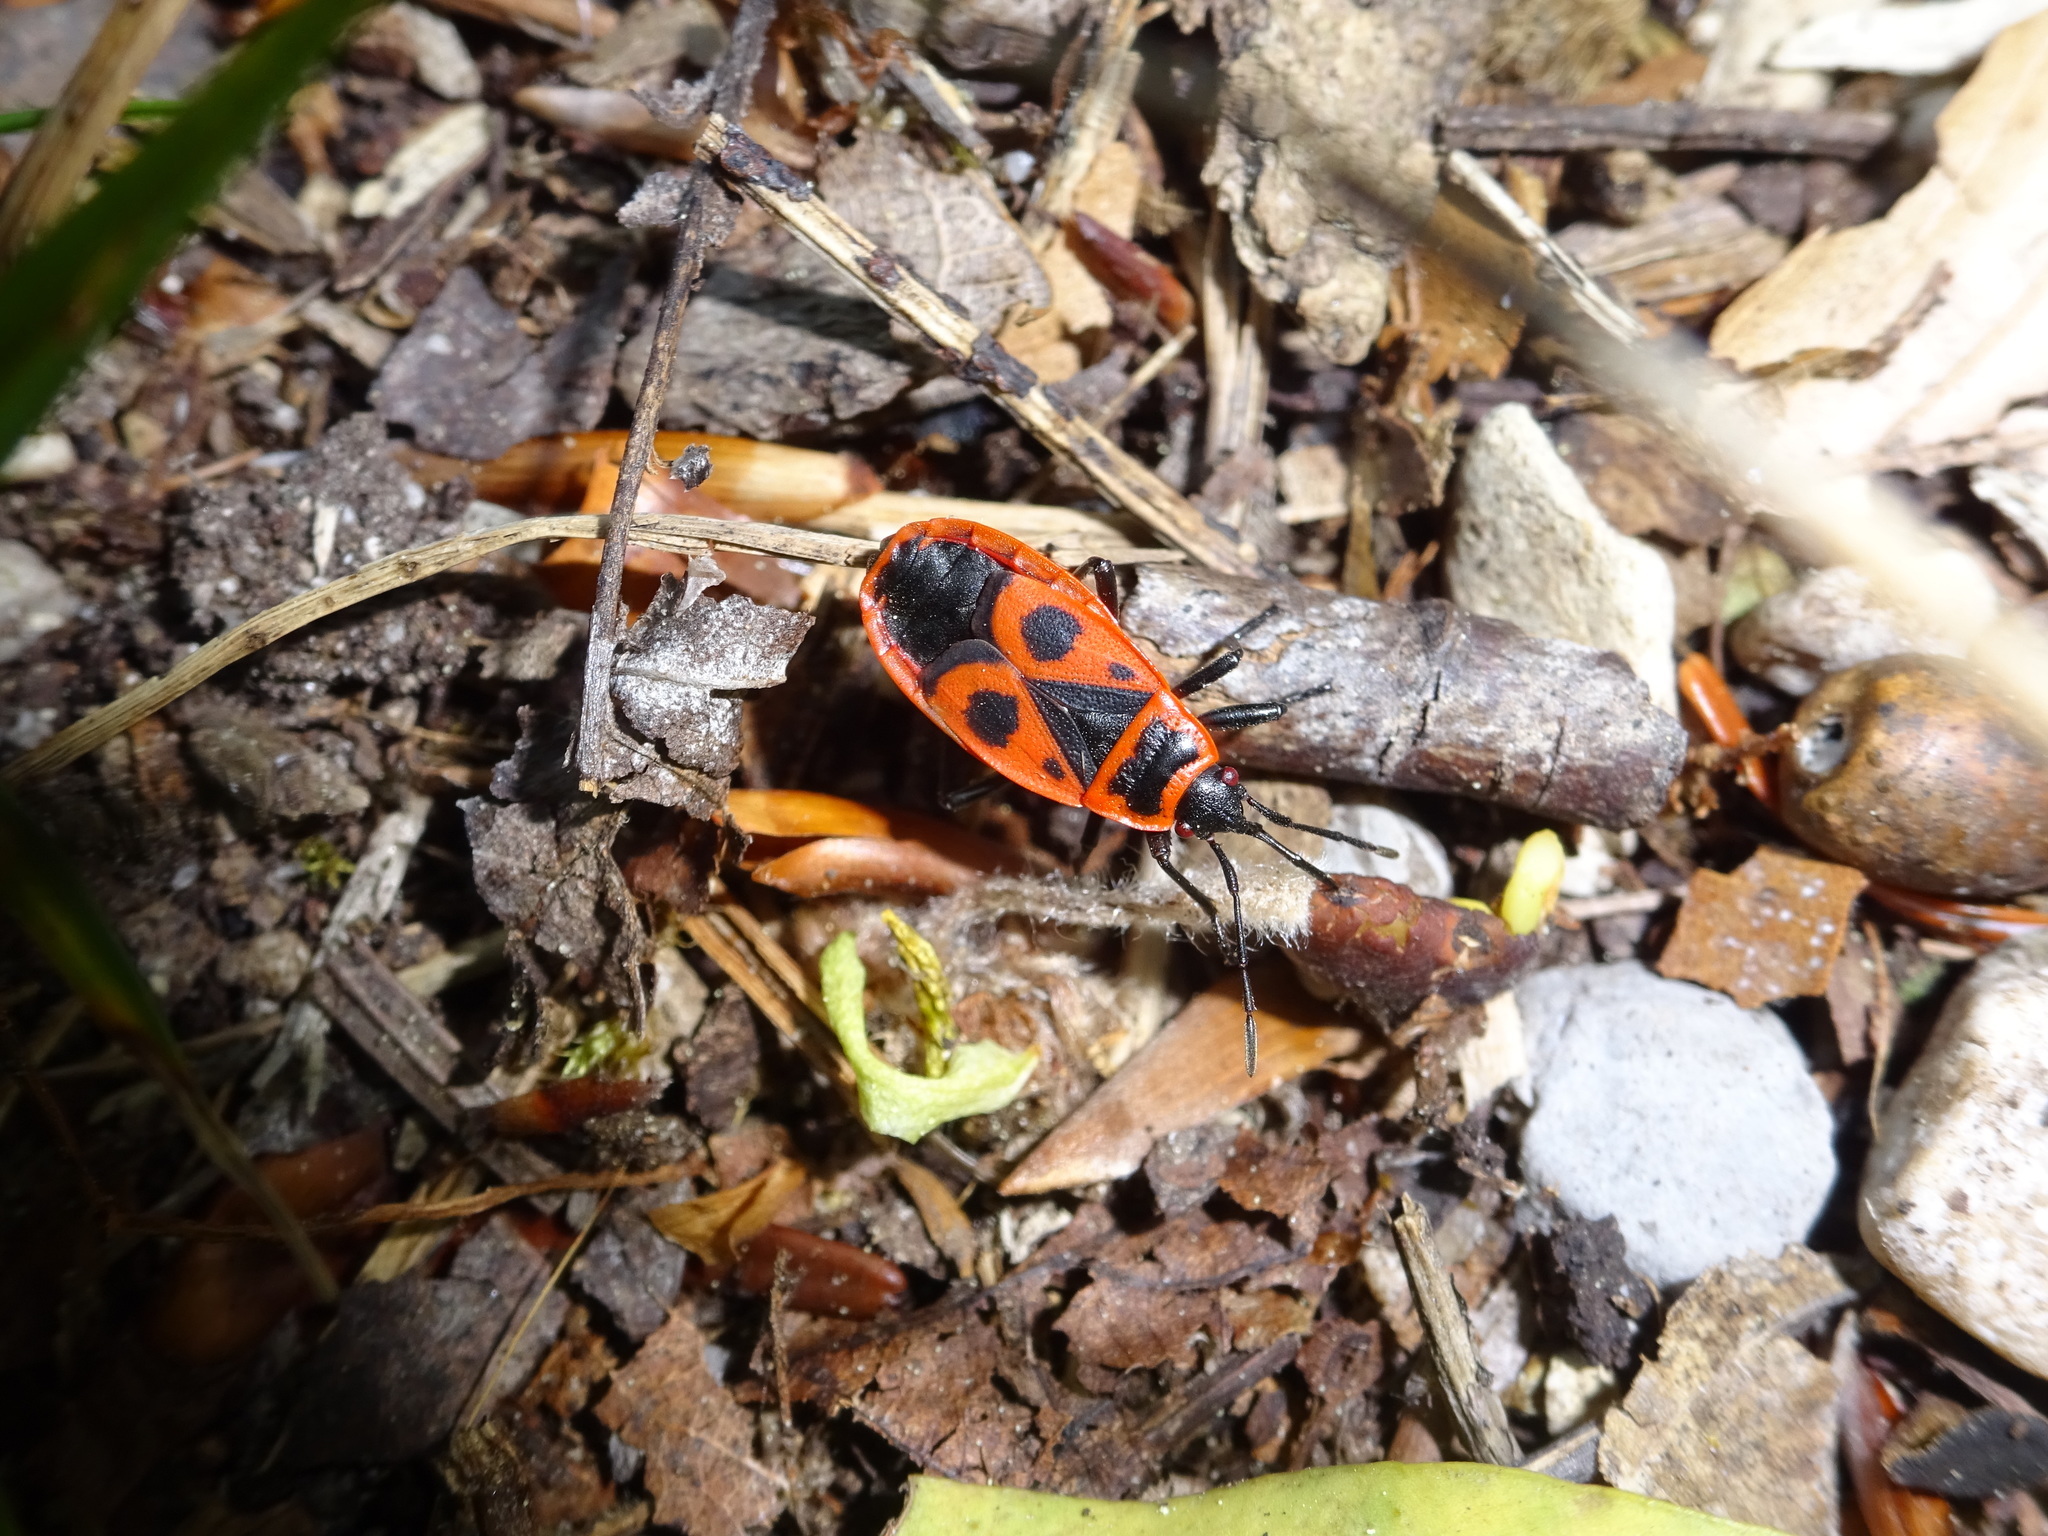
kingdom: Animalia
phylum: Arthropoda
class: Insecta
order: Hemiptera
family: Pyrrhocoridae
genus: Pyrrhocoris
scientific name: Pyrrhocoris apterus
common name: Firebug
